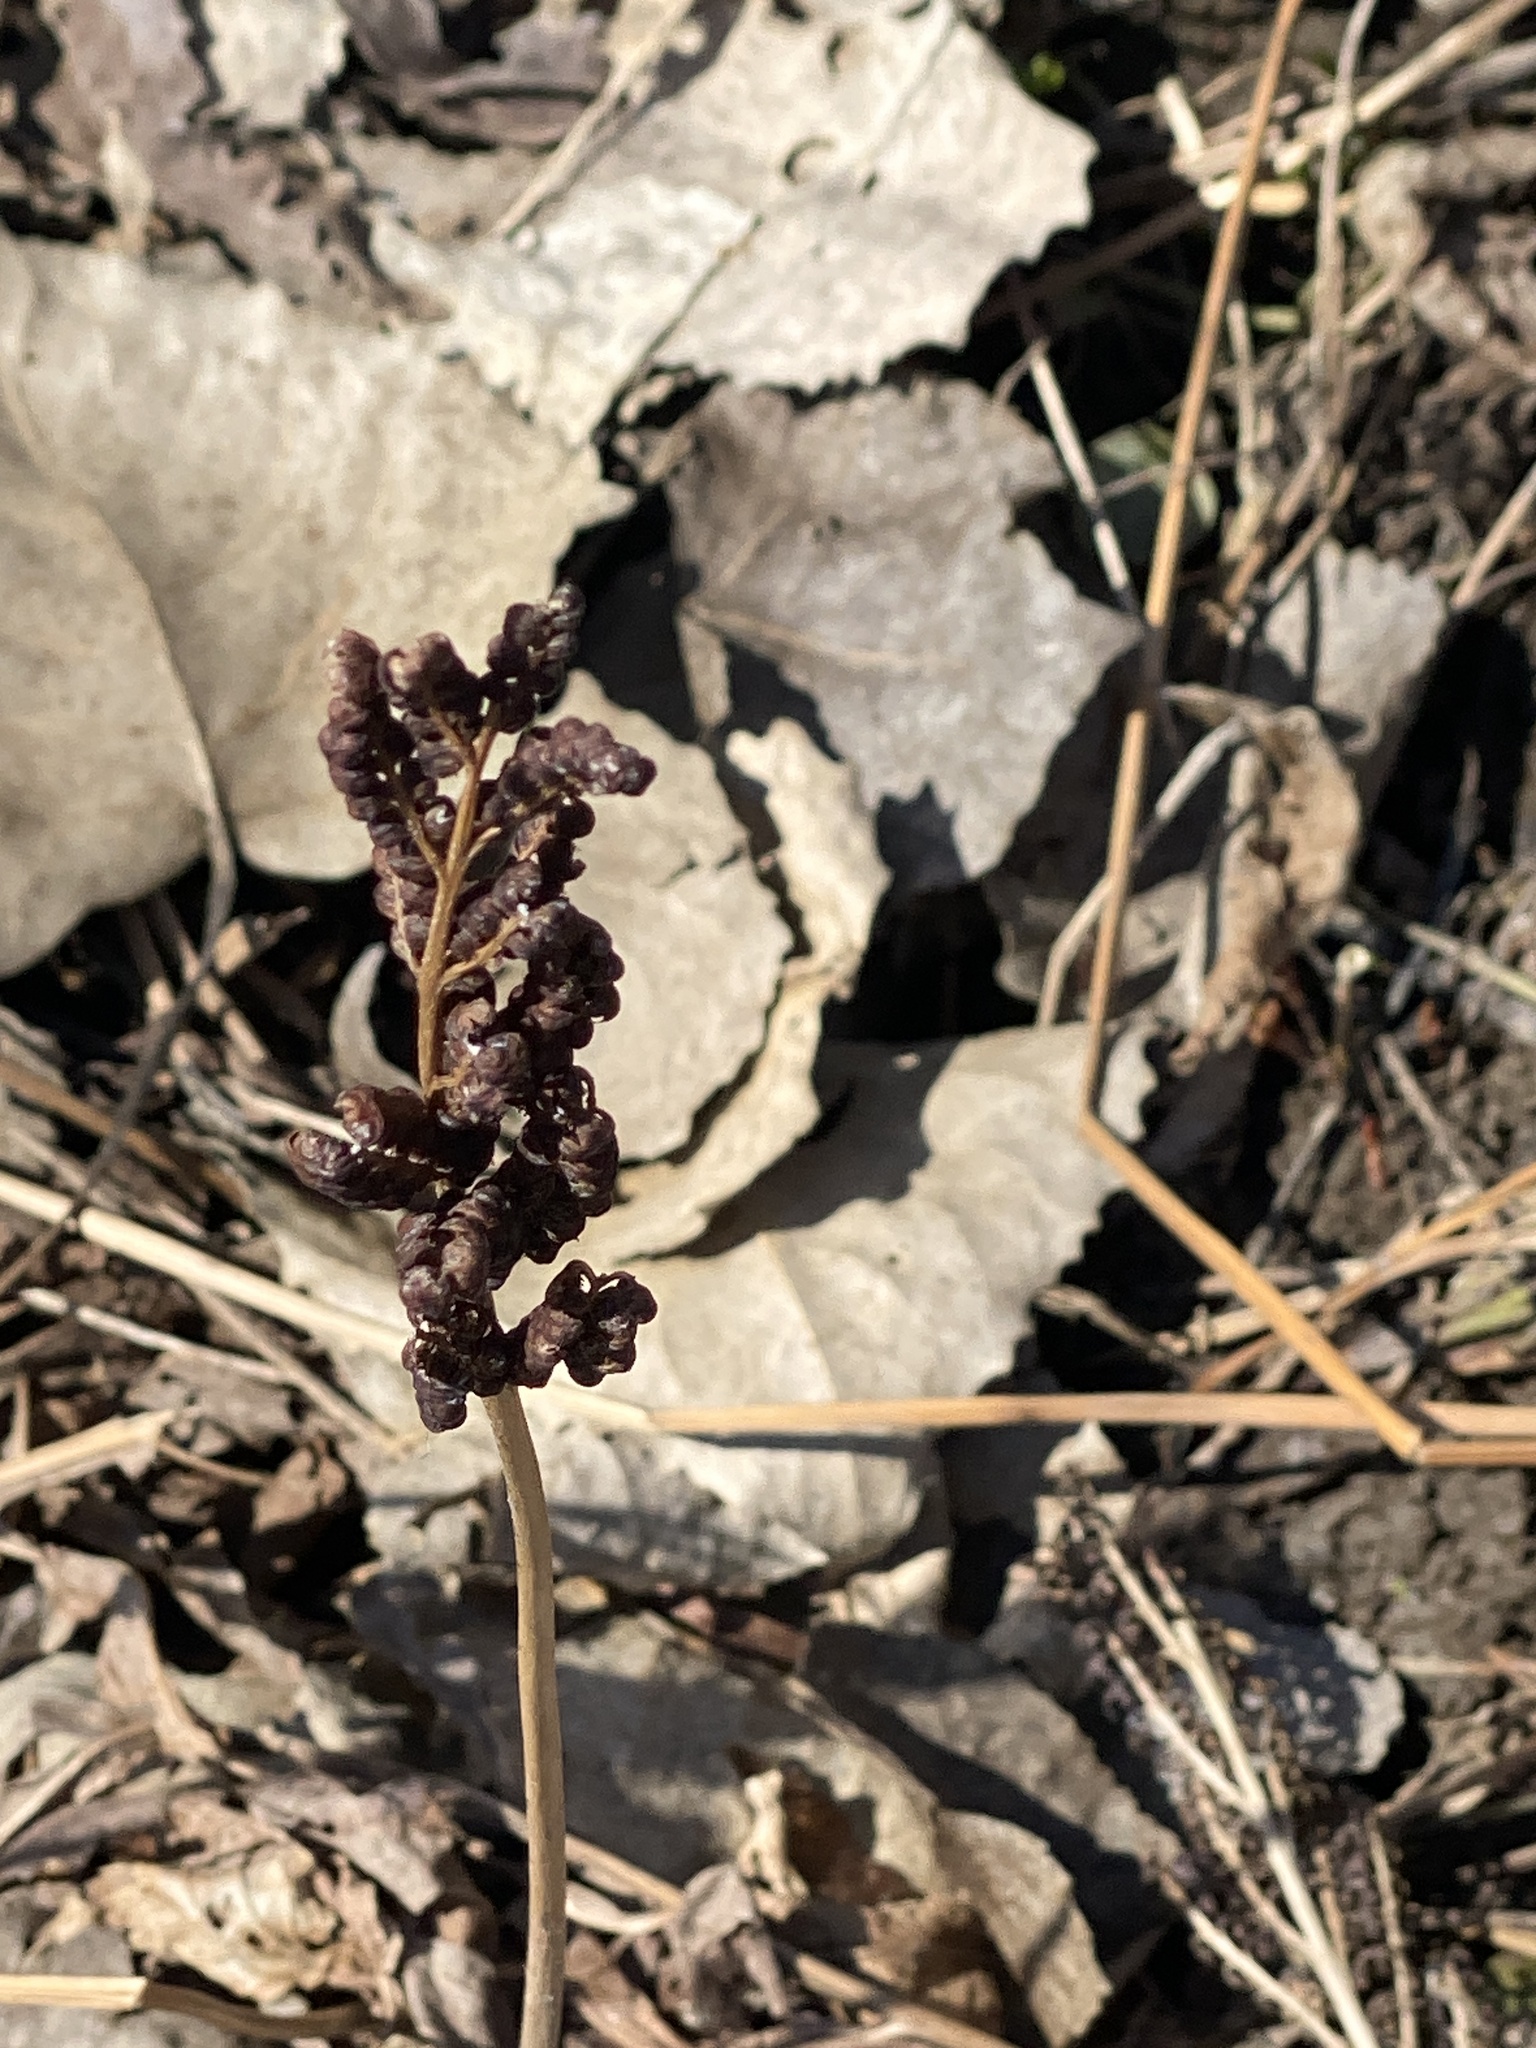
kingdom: Plantae
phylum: Tracheophyta
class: Polypodiopsida
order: Polypodiales
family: Onocleaceae
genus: Onoclea
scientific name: Onoclea sensibilis
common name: Sensitive fern
